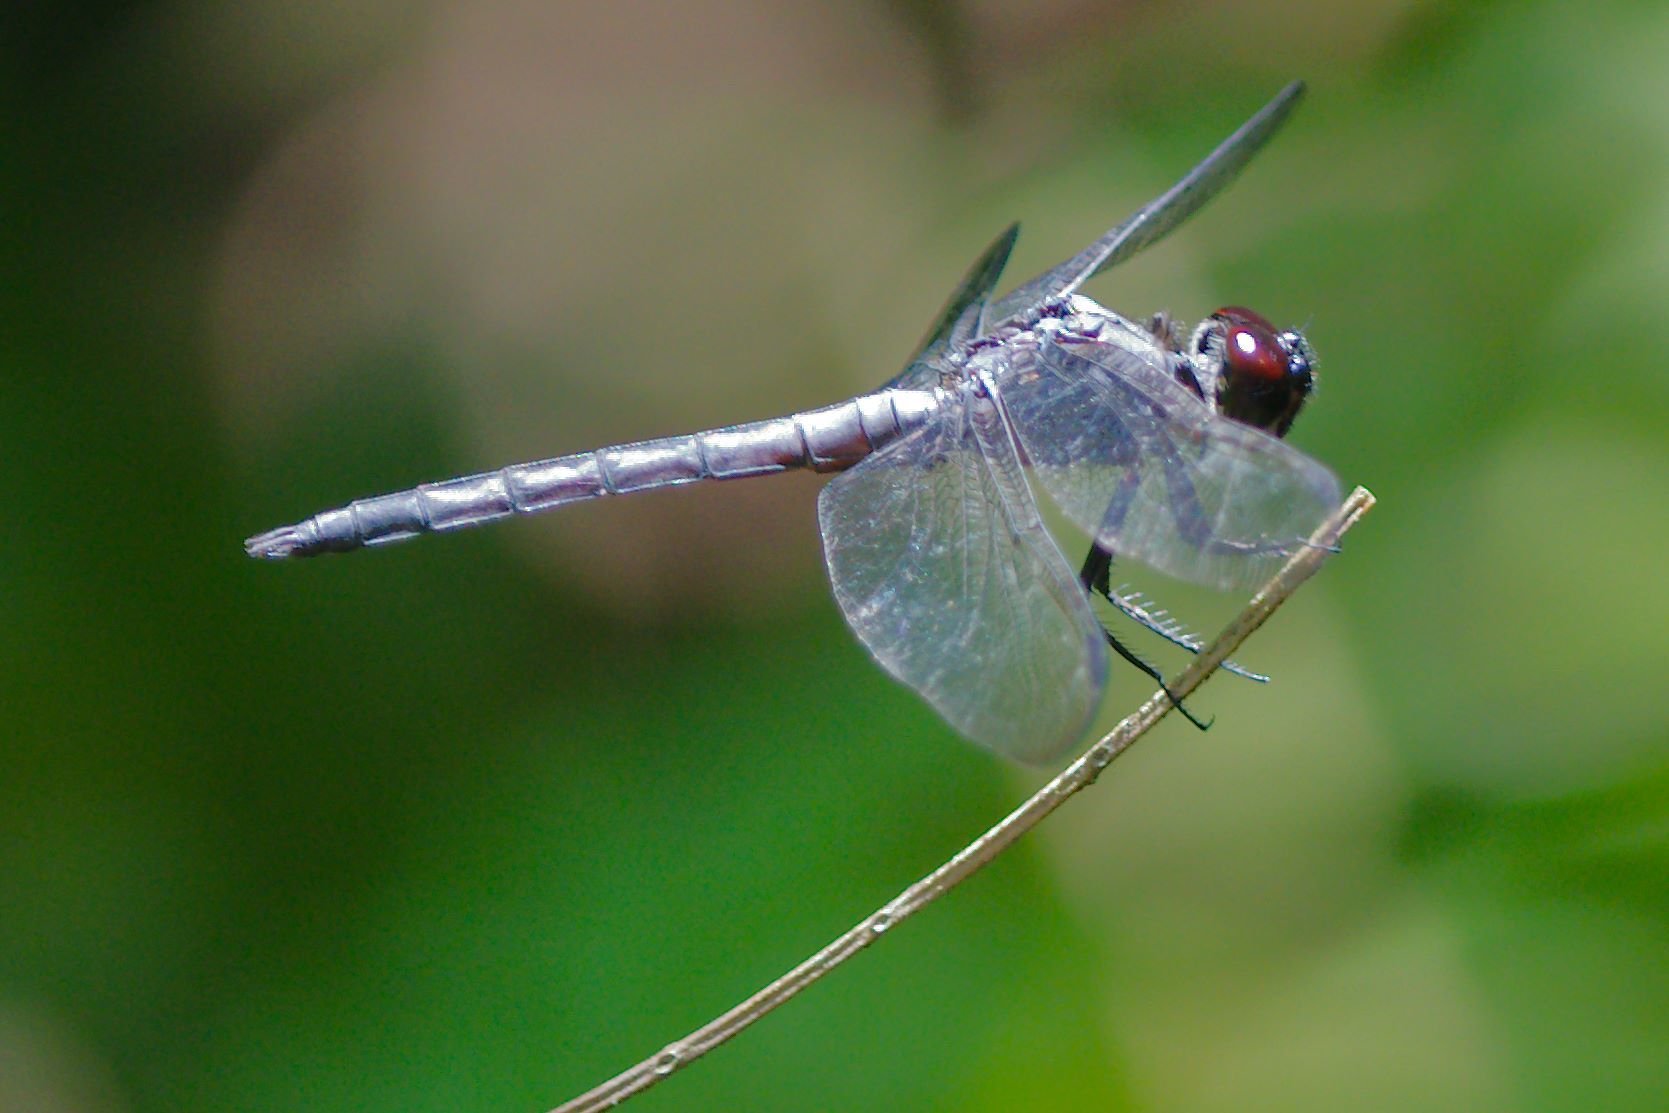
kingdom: Animalia
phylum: Arthropoda
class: Insecta
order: Odonata
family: Libellulidae
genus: Libellula
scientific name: Libellula incesta
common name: Slaty skimmer
